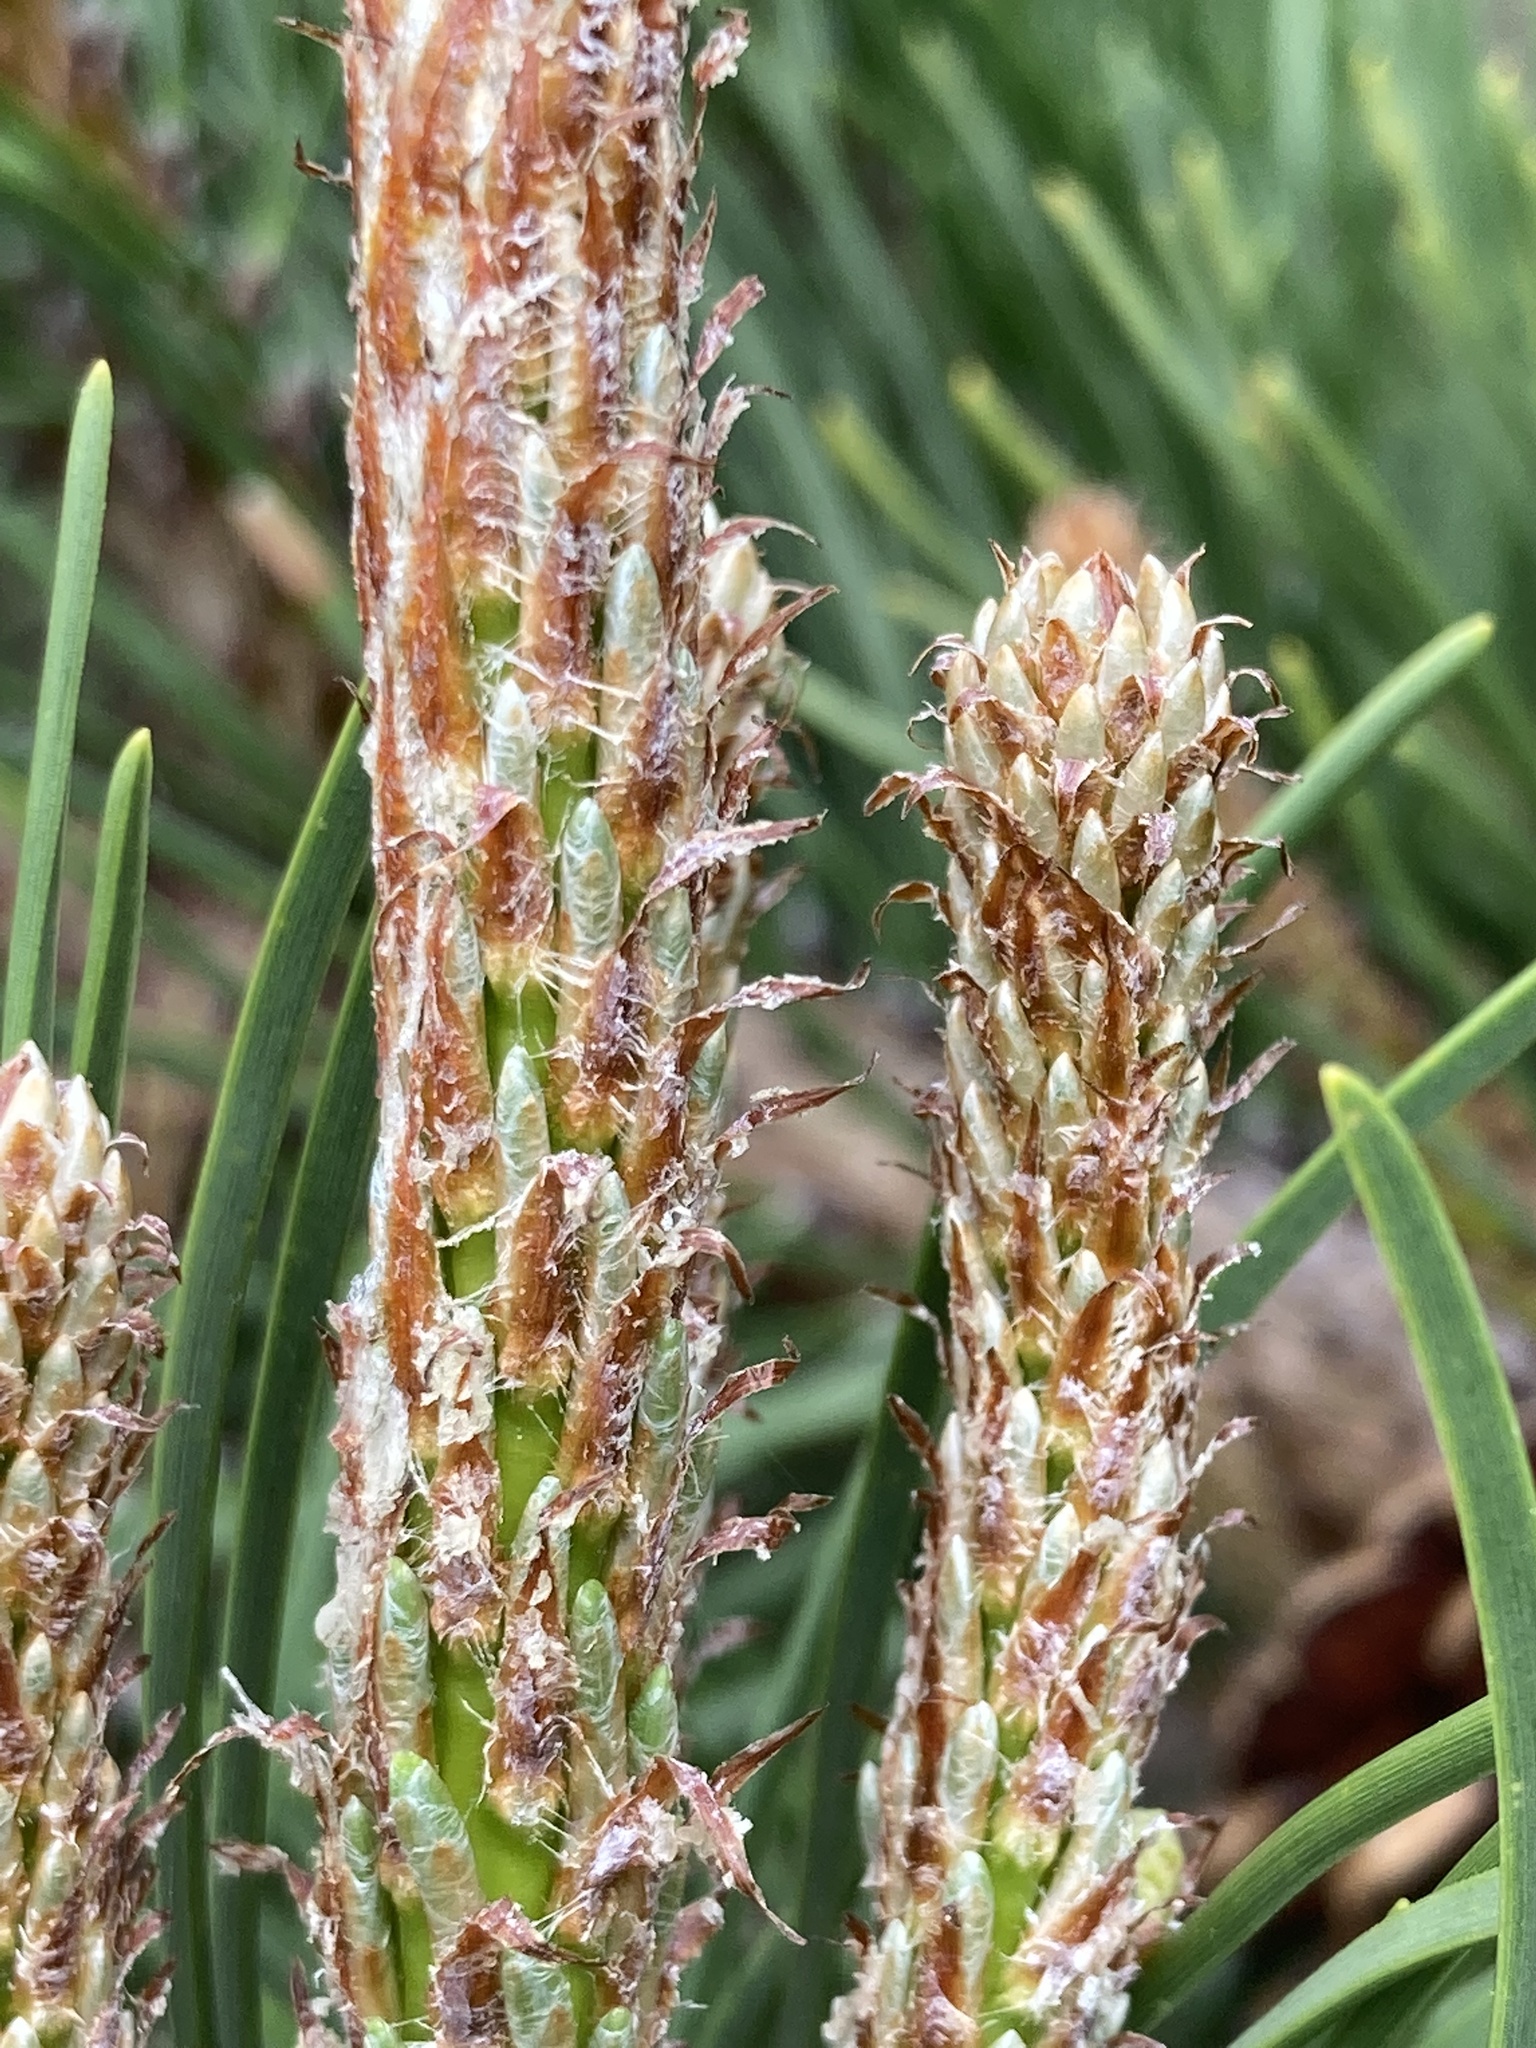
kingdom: Plantae
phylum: Tracheophyta
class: Pinopsida
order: Pinales
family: Pinaceae
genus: Pinus
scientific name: Pinus contorta
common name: Lodgepole pine
